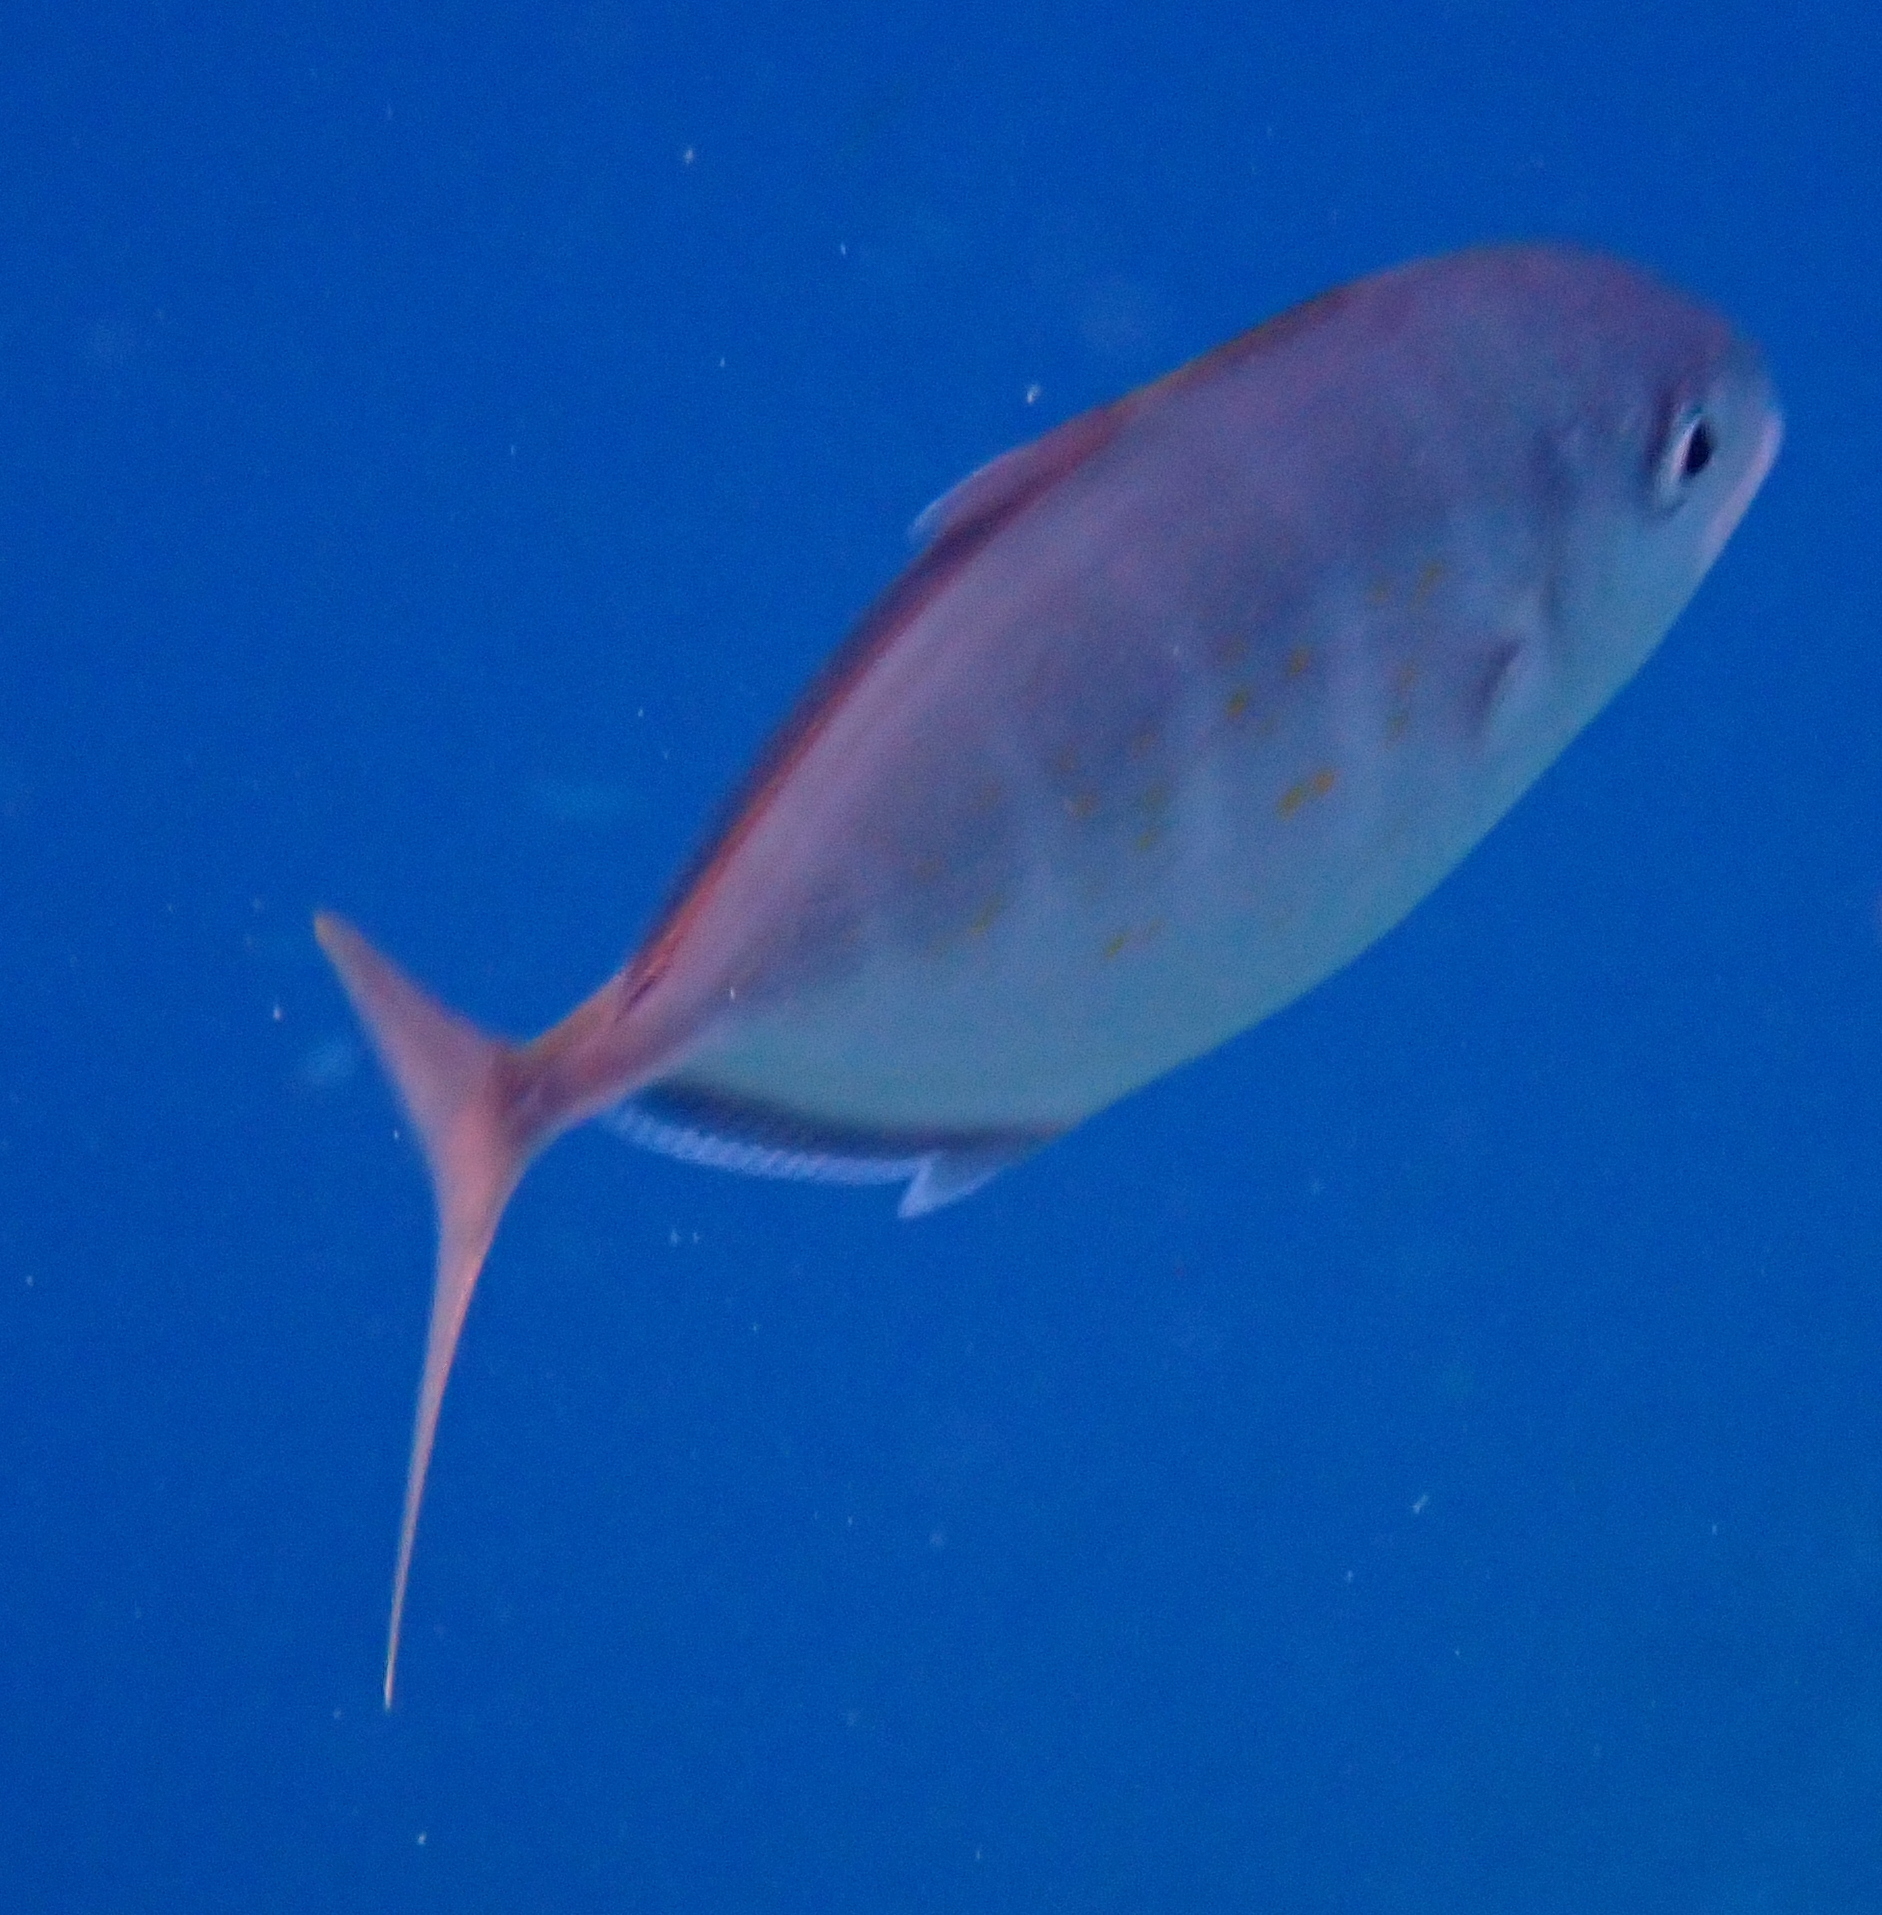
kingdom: Animalia
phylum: Chordata
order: Perciformes
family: Carangidae
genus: Flavocaranx
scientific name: Flavocaranx bajad
